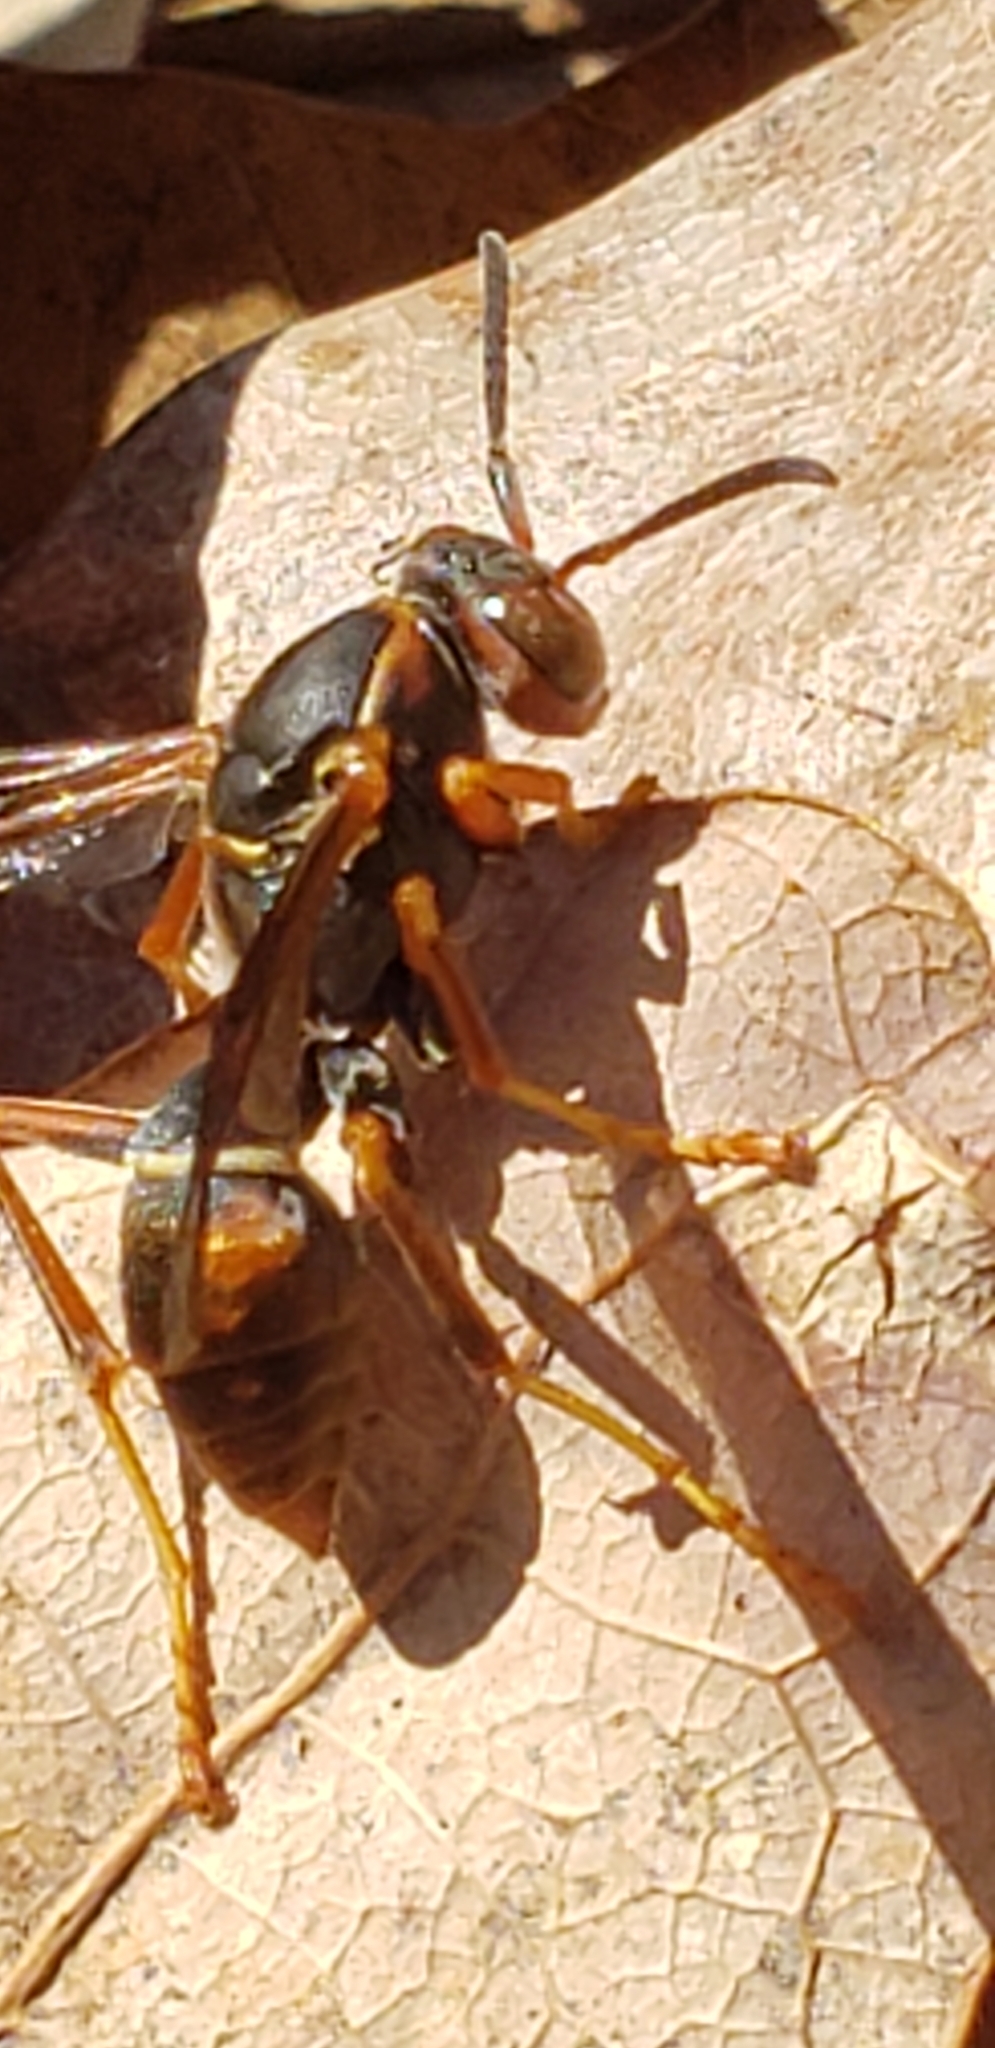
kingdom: Animalia
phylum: Arthropoda
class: Insecta
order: Hymenoptera
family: Eumenidae
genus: Polistes
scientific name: Polistes fuscatus
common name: Dark paper wasp
